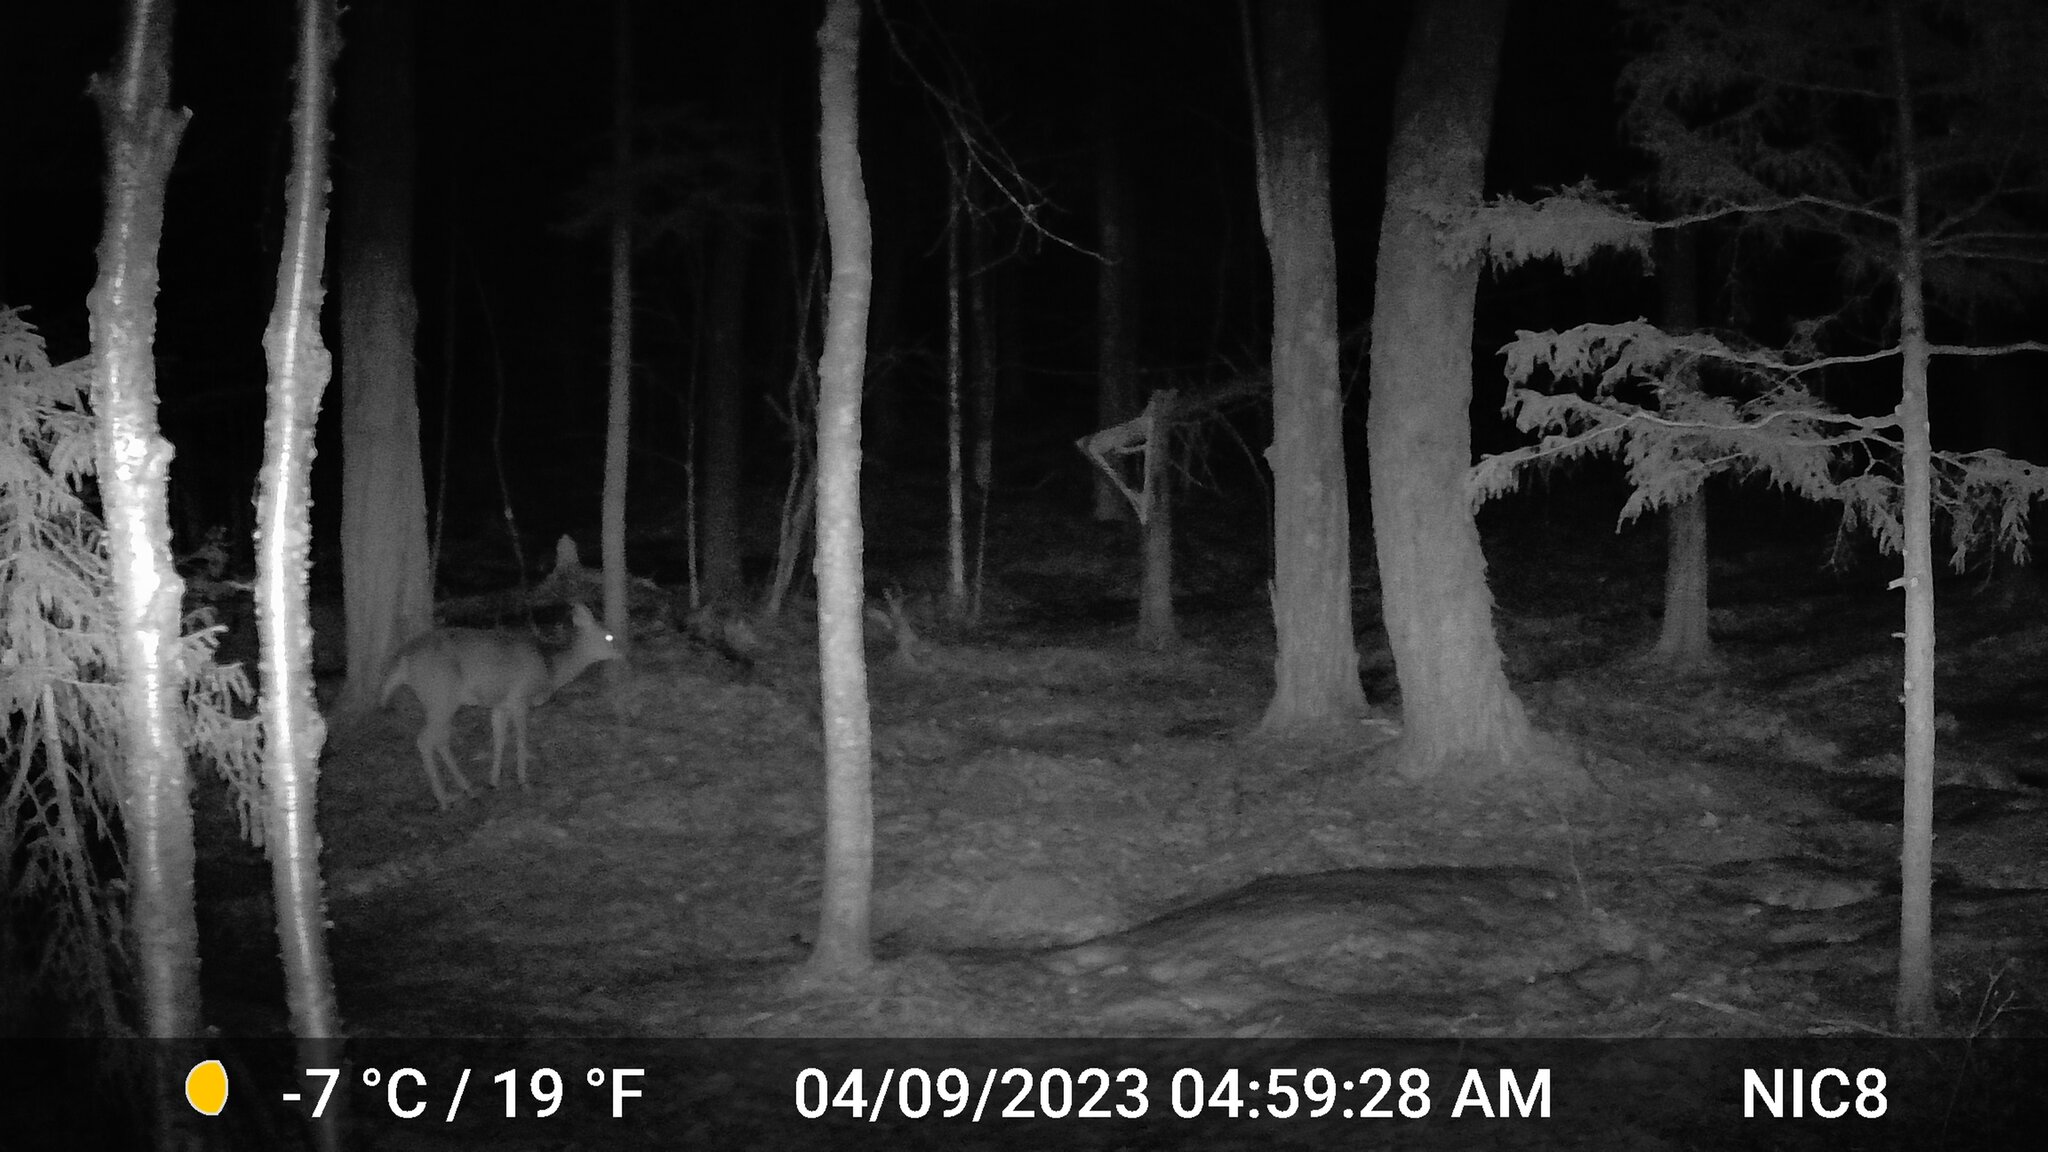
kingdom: Animalia
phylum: Chordata
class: Mammalia
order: Artiodactyla
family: Cervidae
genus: Odocoileus
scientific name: Odocoileus virginianus
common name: White-tailed deer
